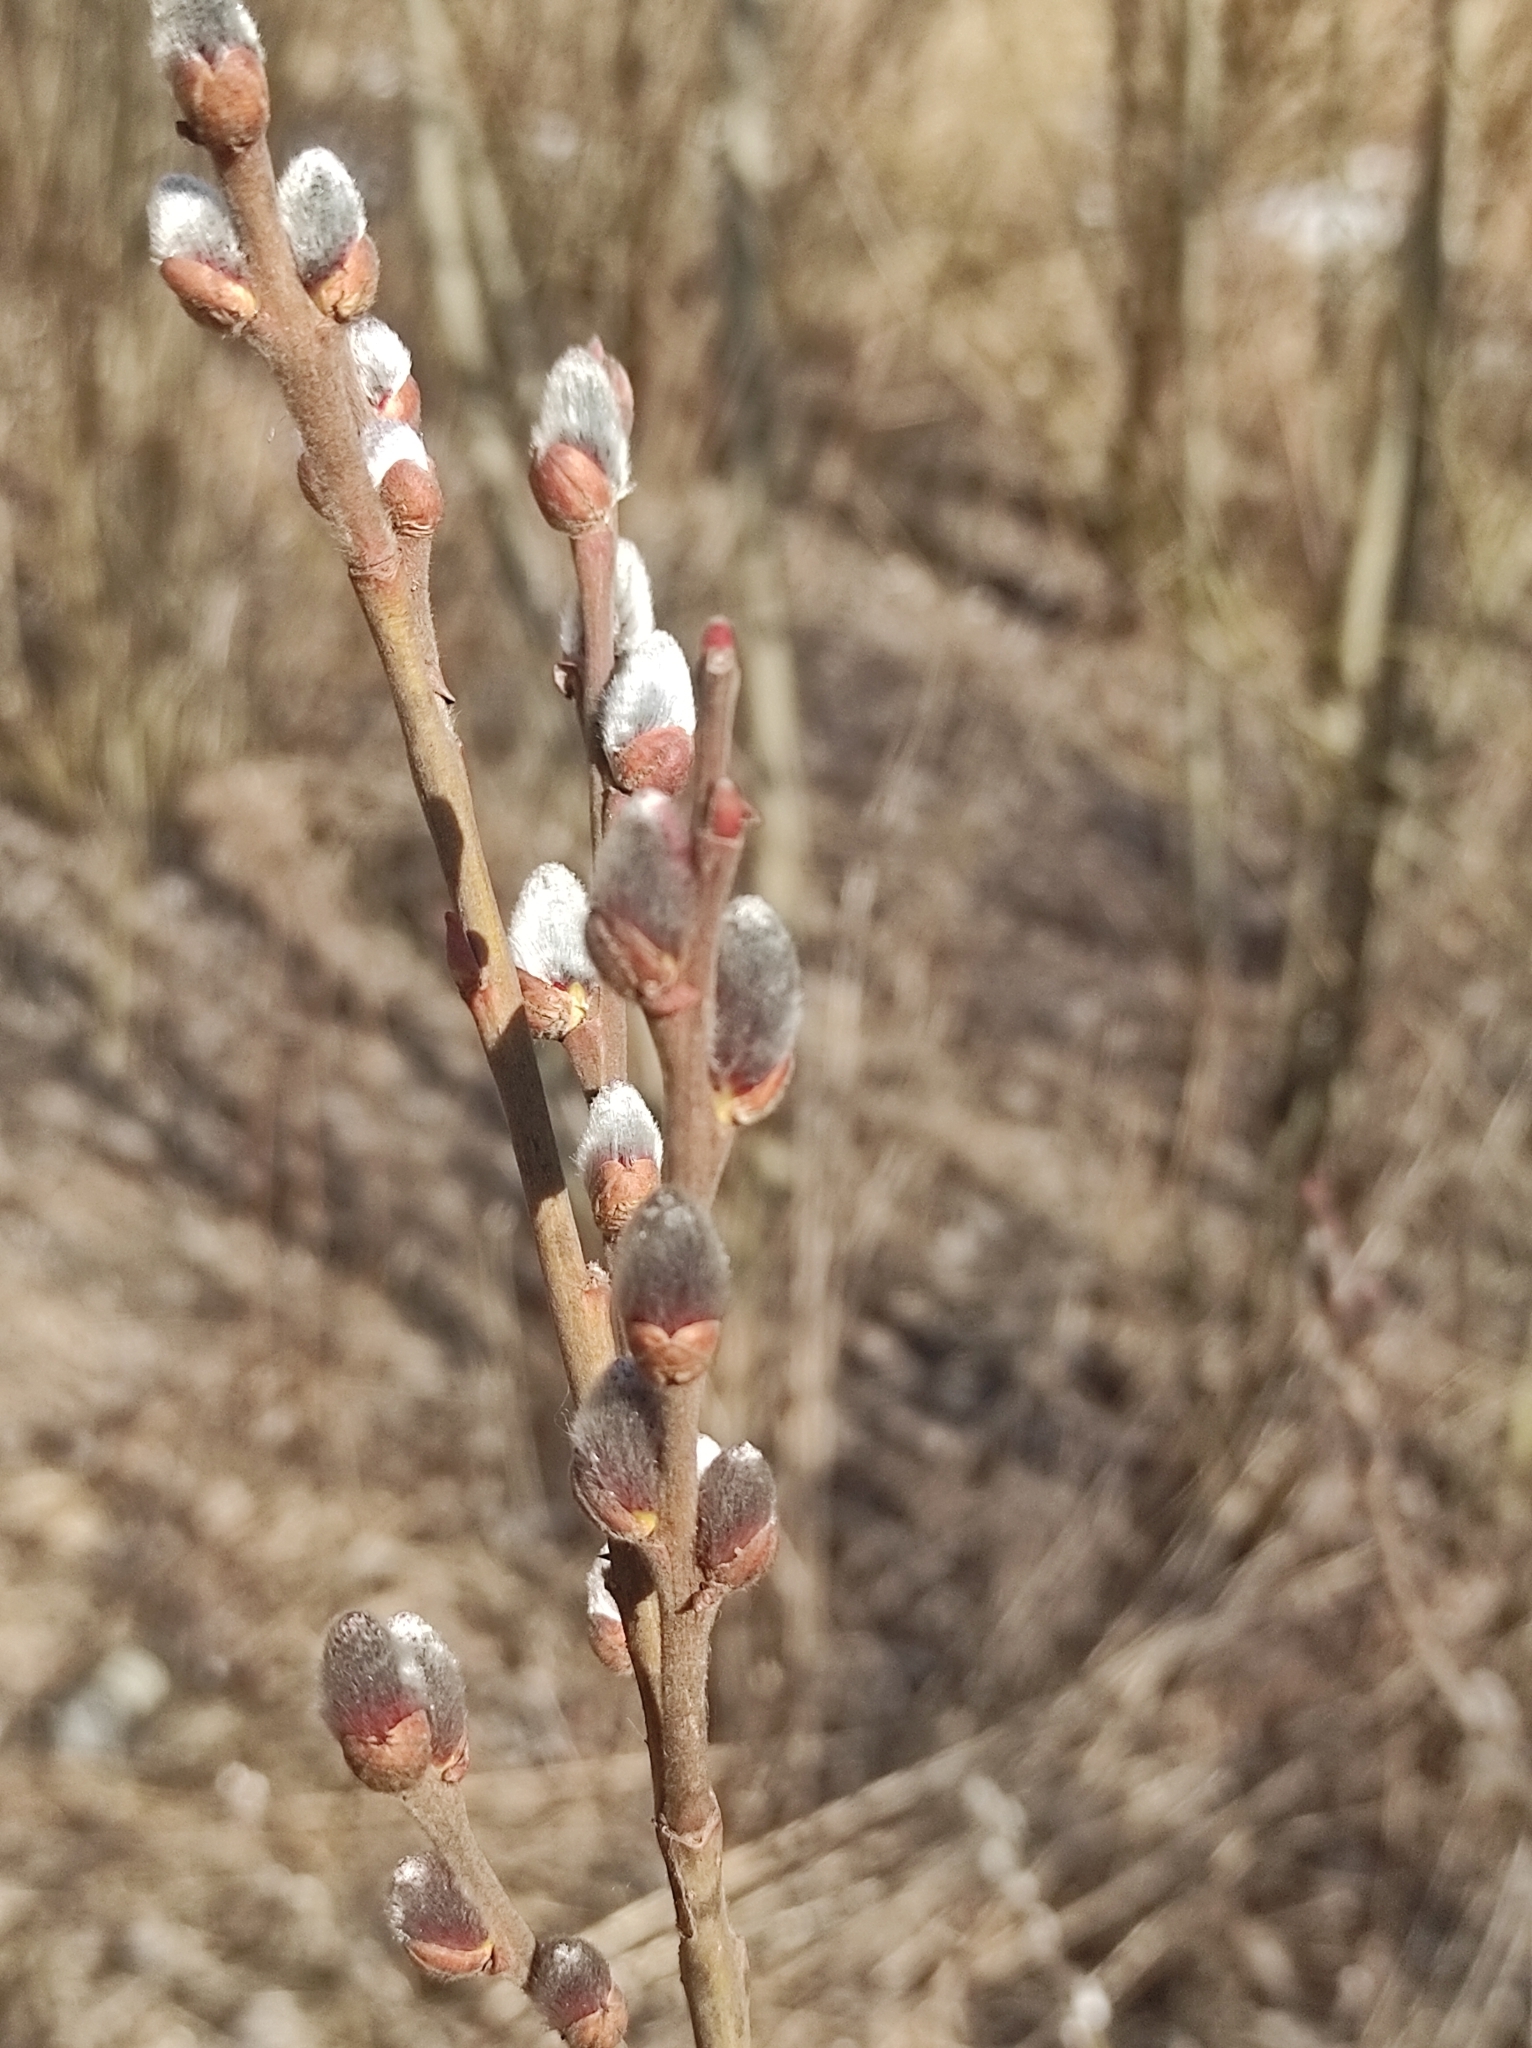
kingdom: Plantae
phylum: Tracheophyta
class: Magnoliopsida
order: Malpighiales
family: Salicaceae
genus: Salix
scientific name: Salix cinerea
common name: Common sallow
